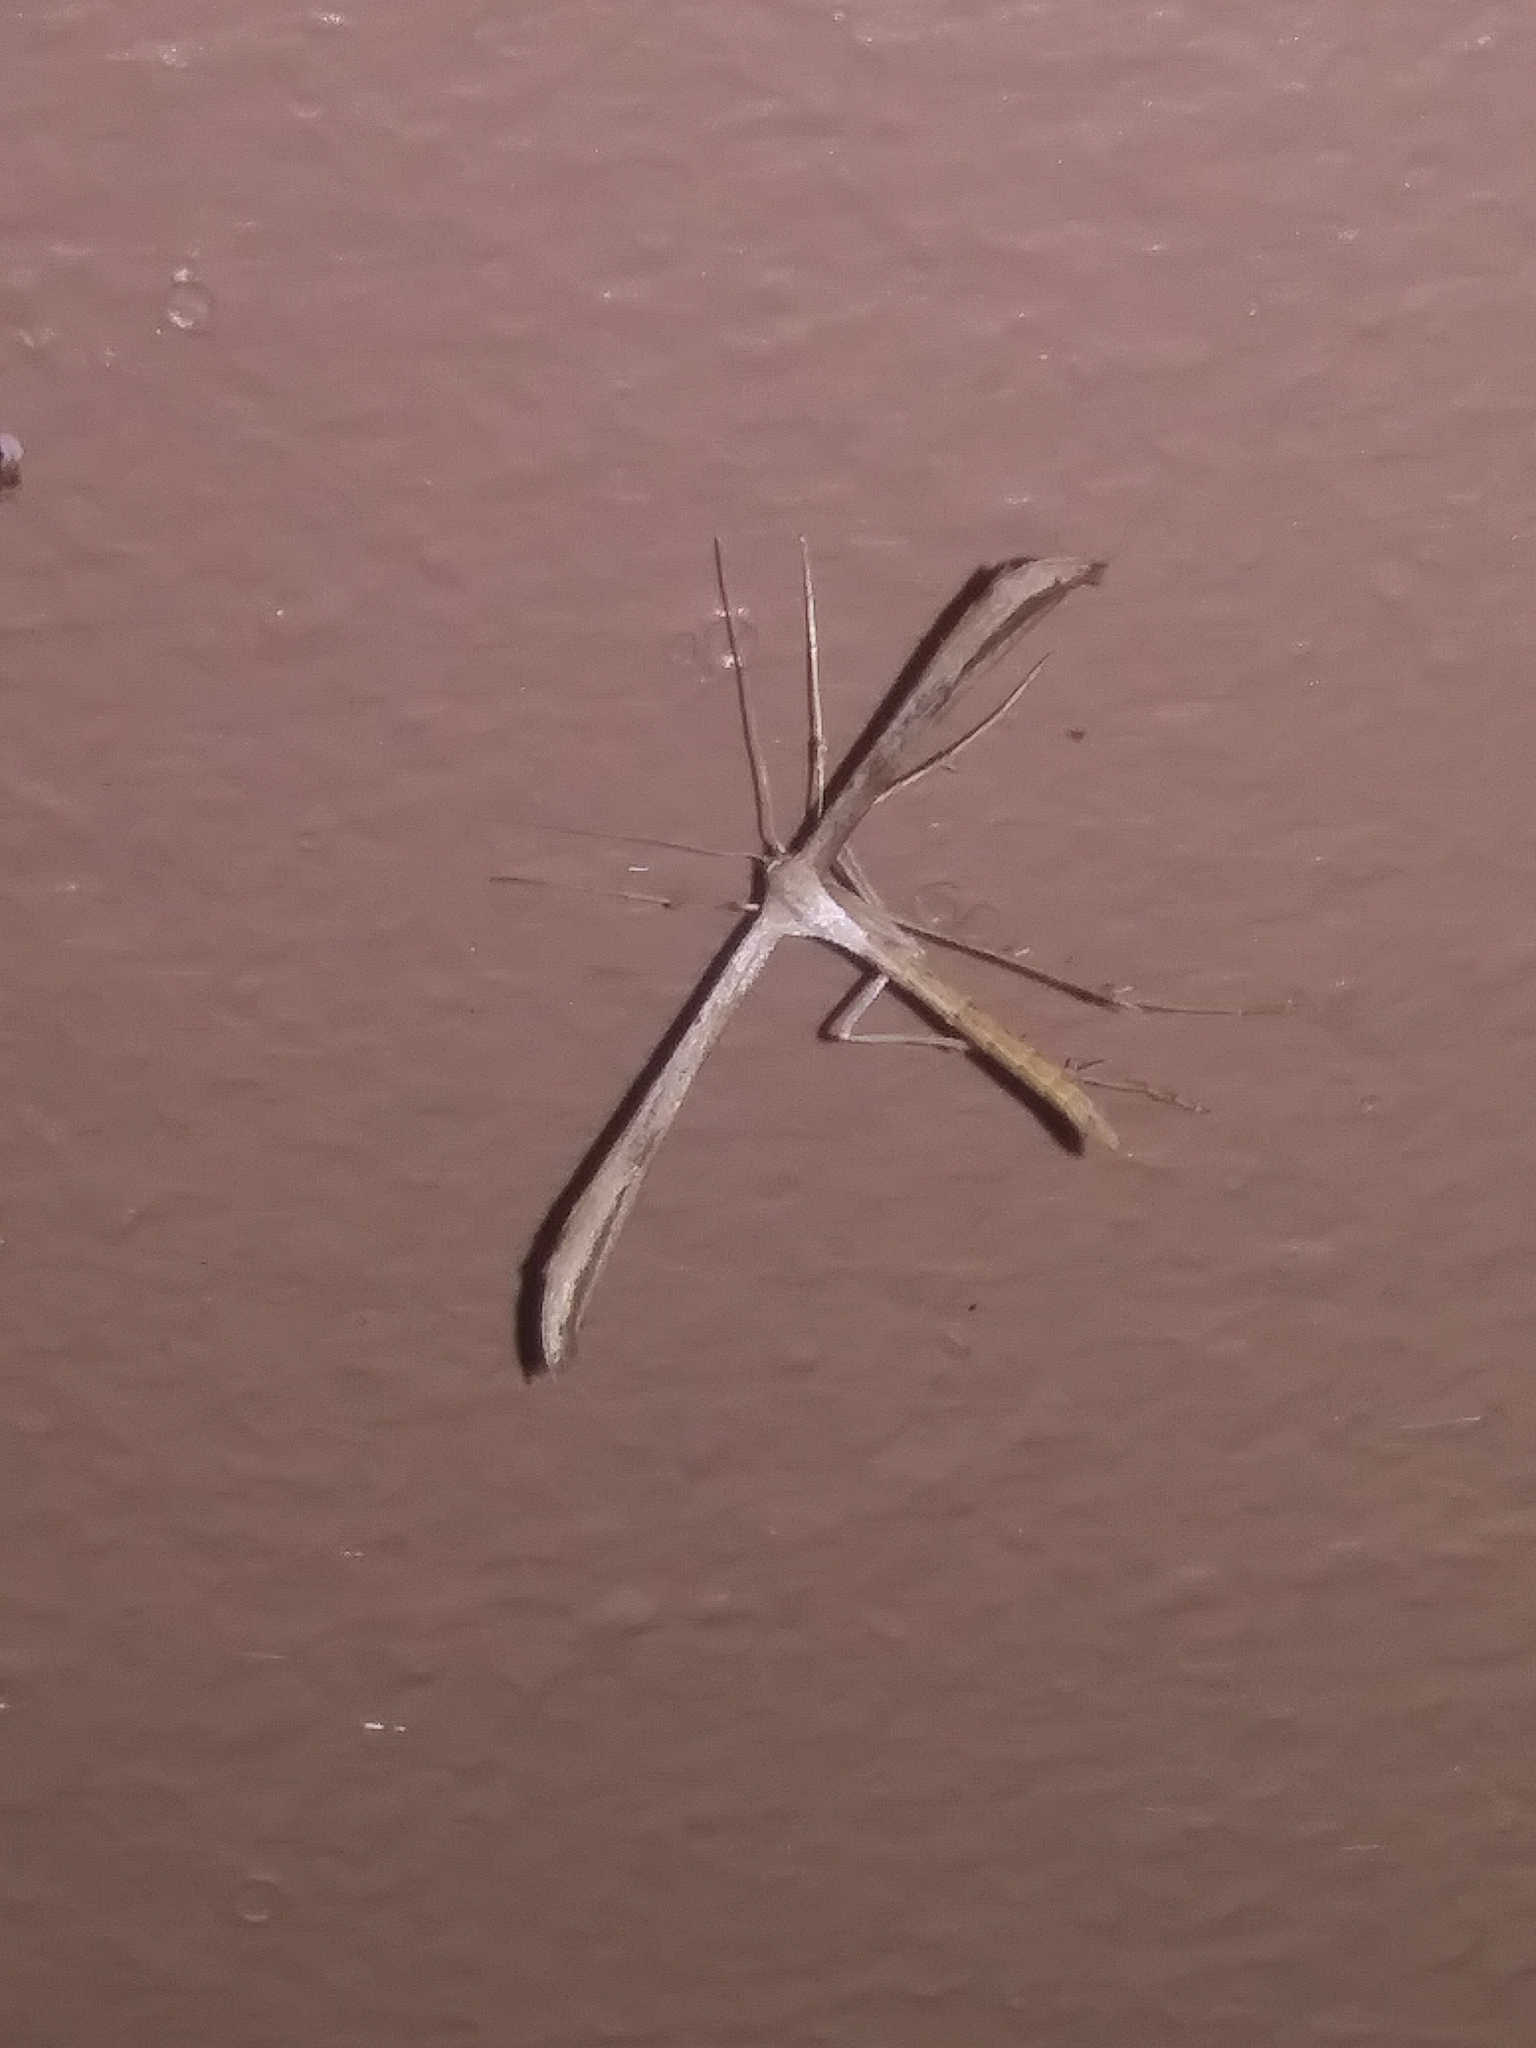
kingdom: Animalia
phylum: Arthropoda
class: Insecta
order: Lepidoptera
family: Pterophoridae
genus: Emmelina
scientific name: Emmelina monodactyla
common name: Common plume
